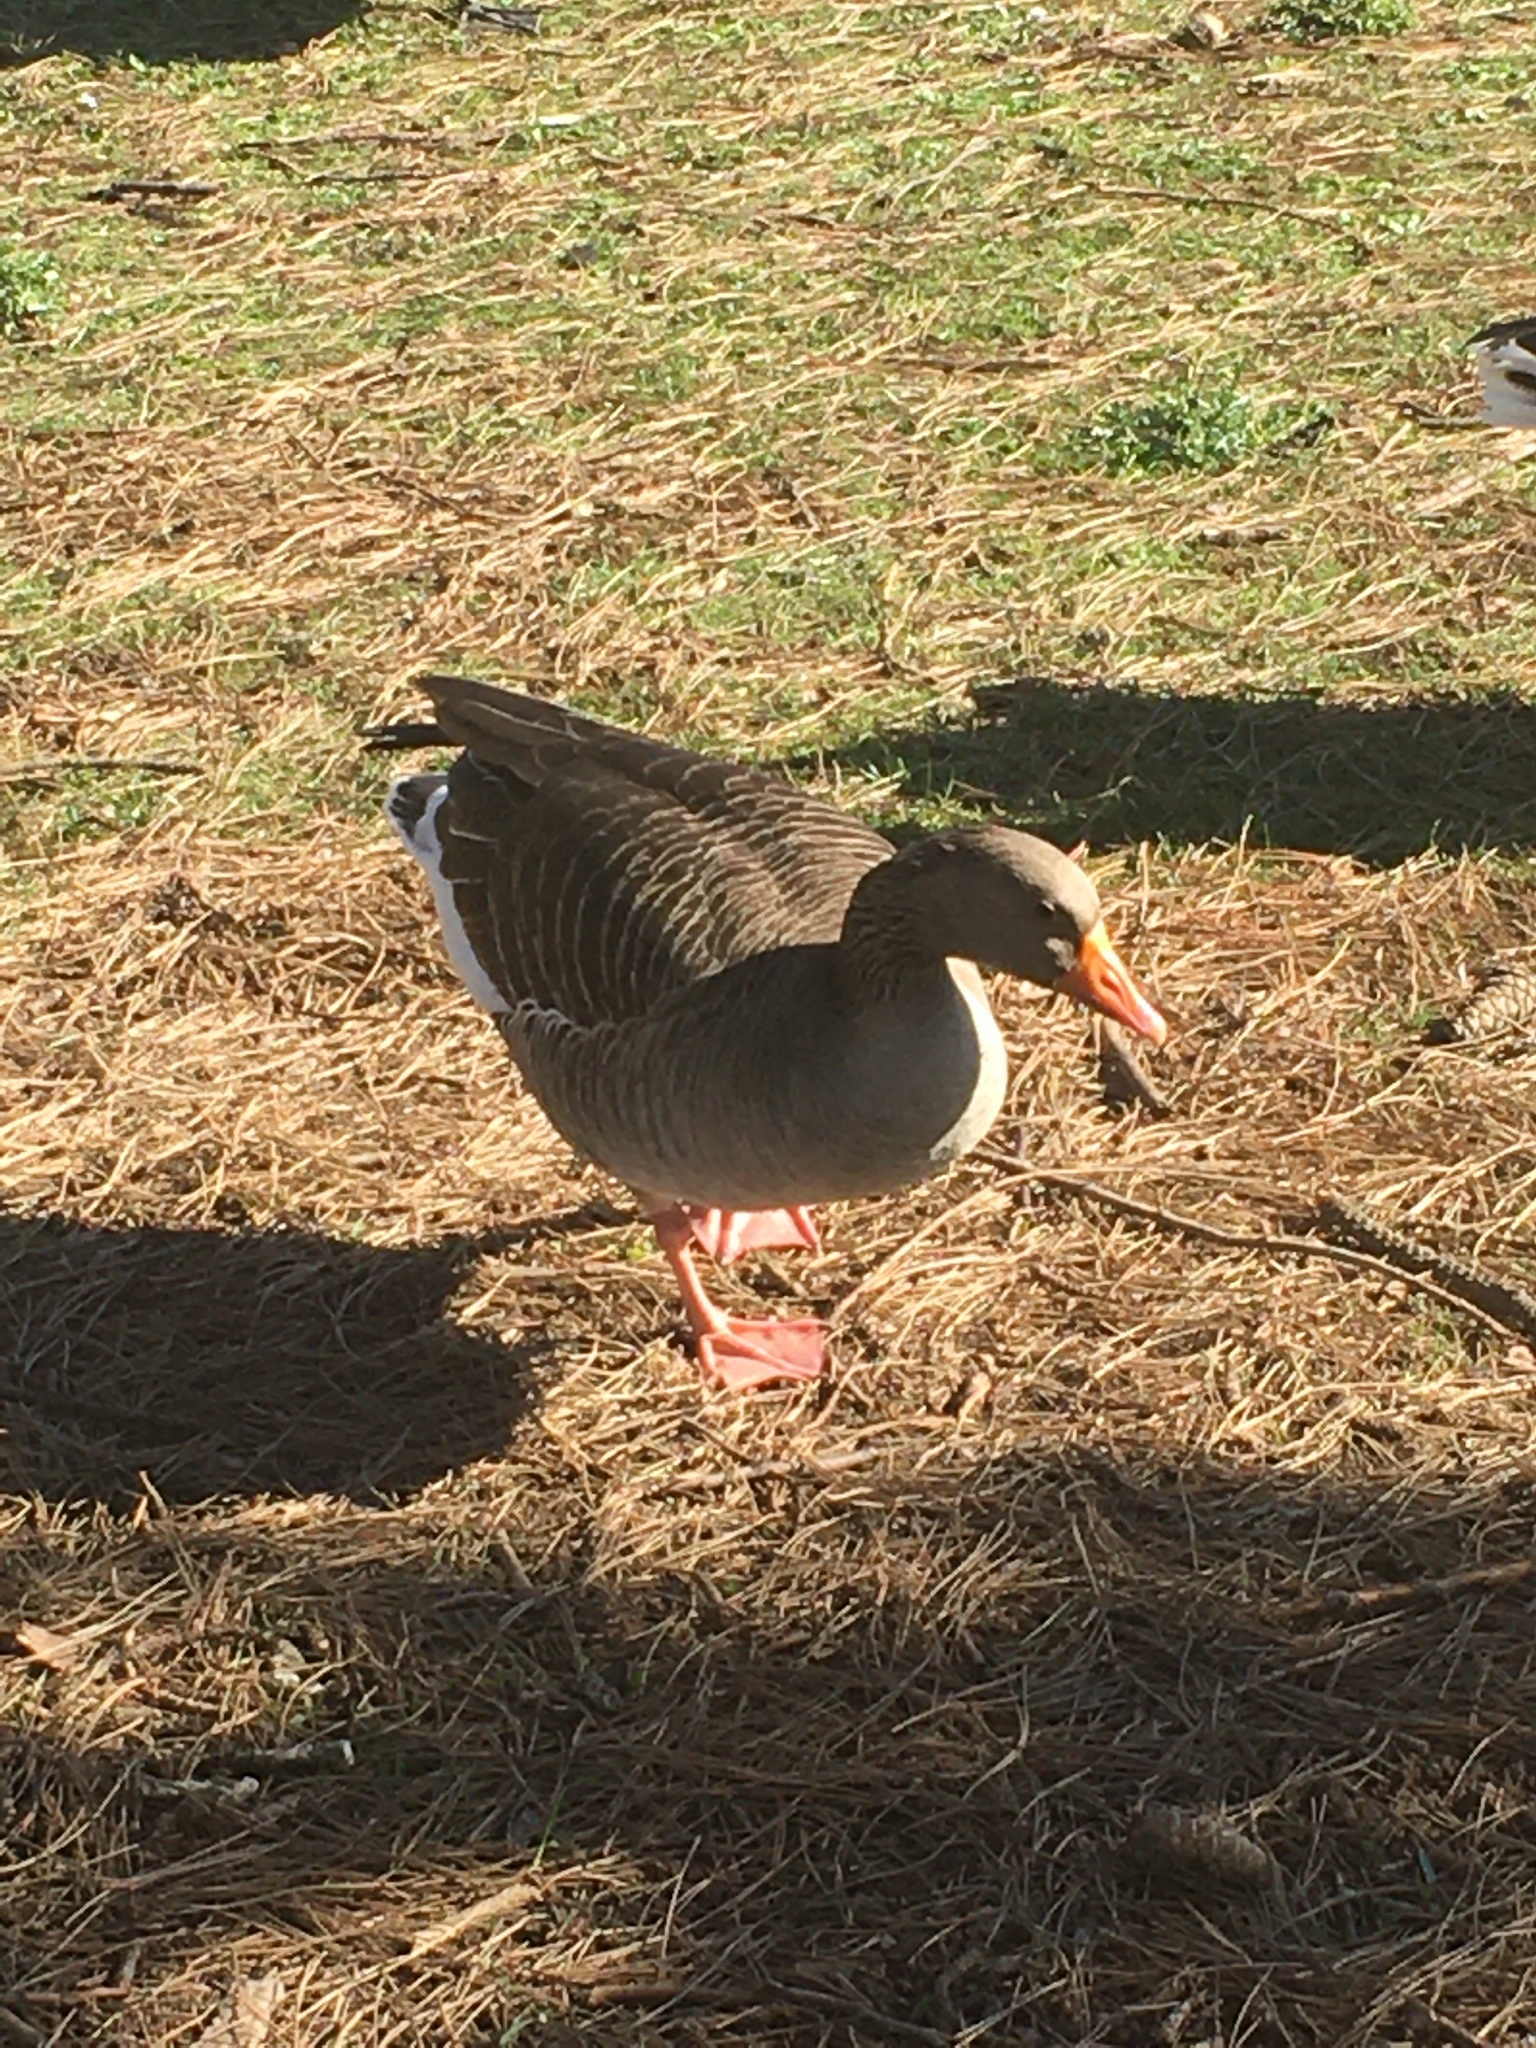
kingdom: Animalia
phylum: Chordata
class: Aves
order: Anseriformes
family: Anatidae
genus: Anser
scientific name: Anser anser
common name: Greylag goose
